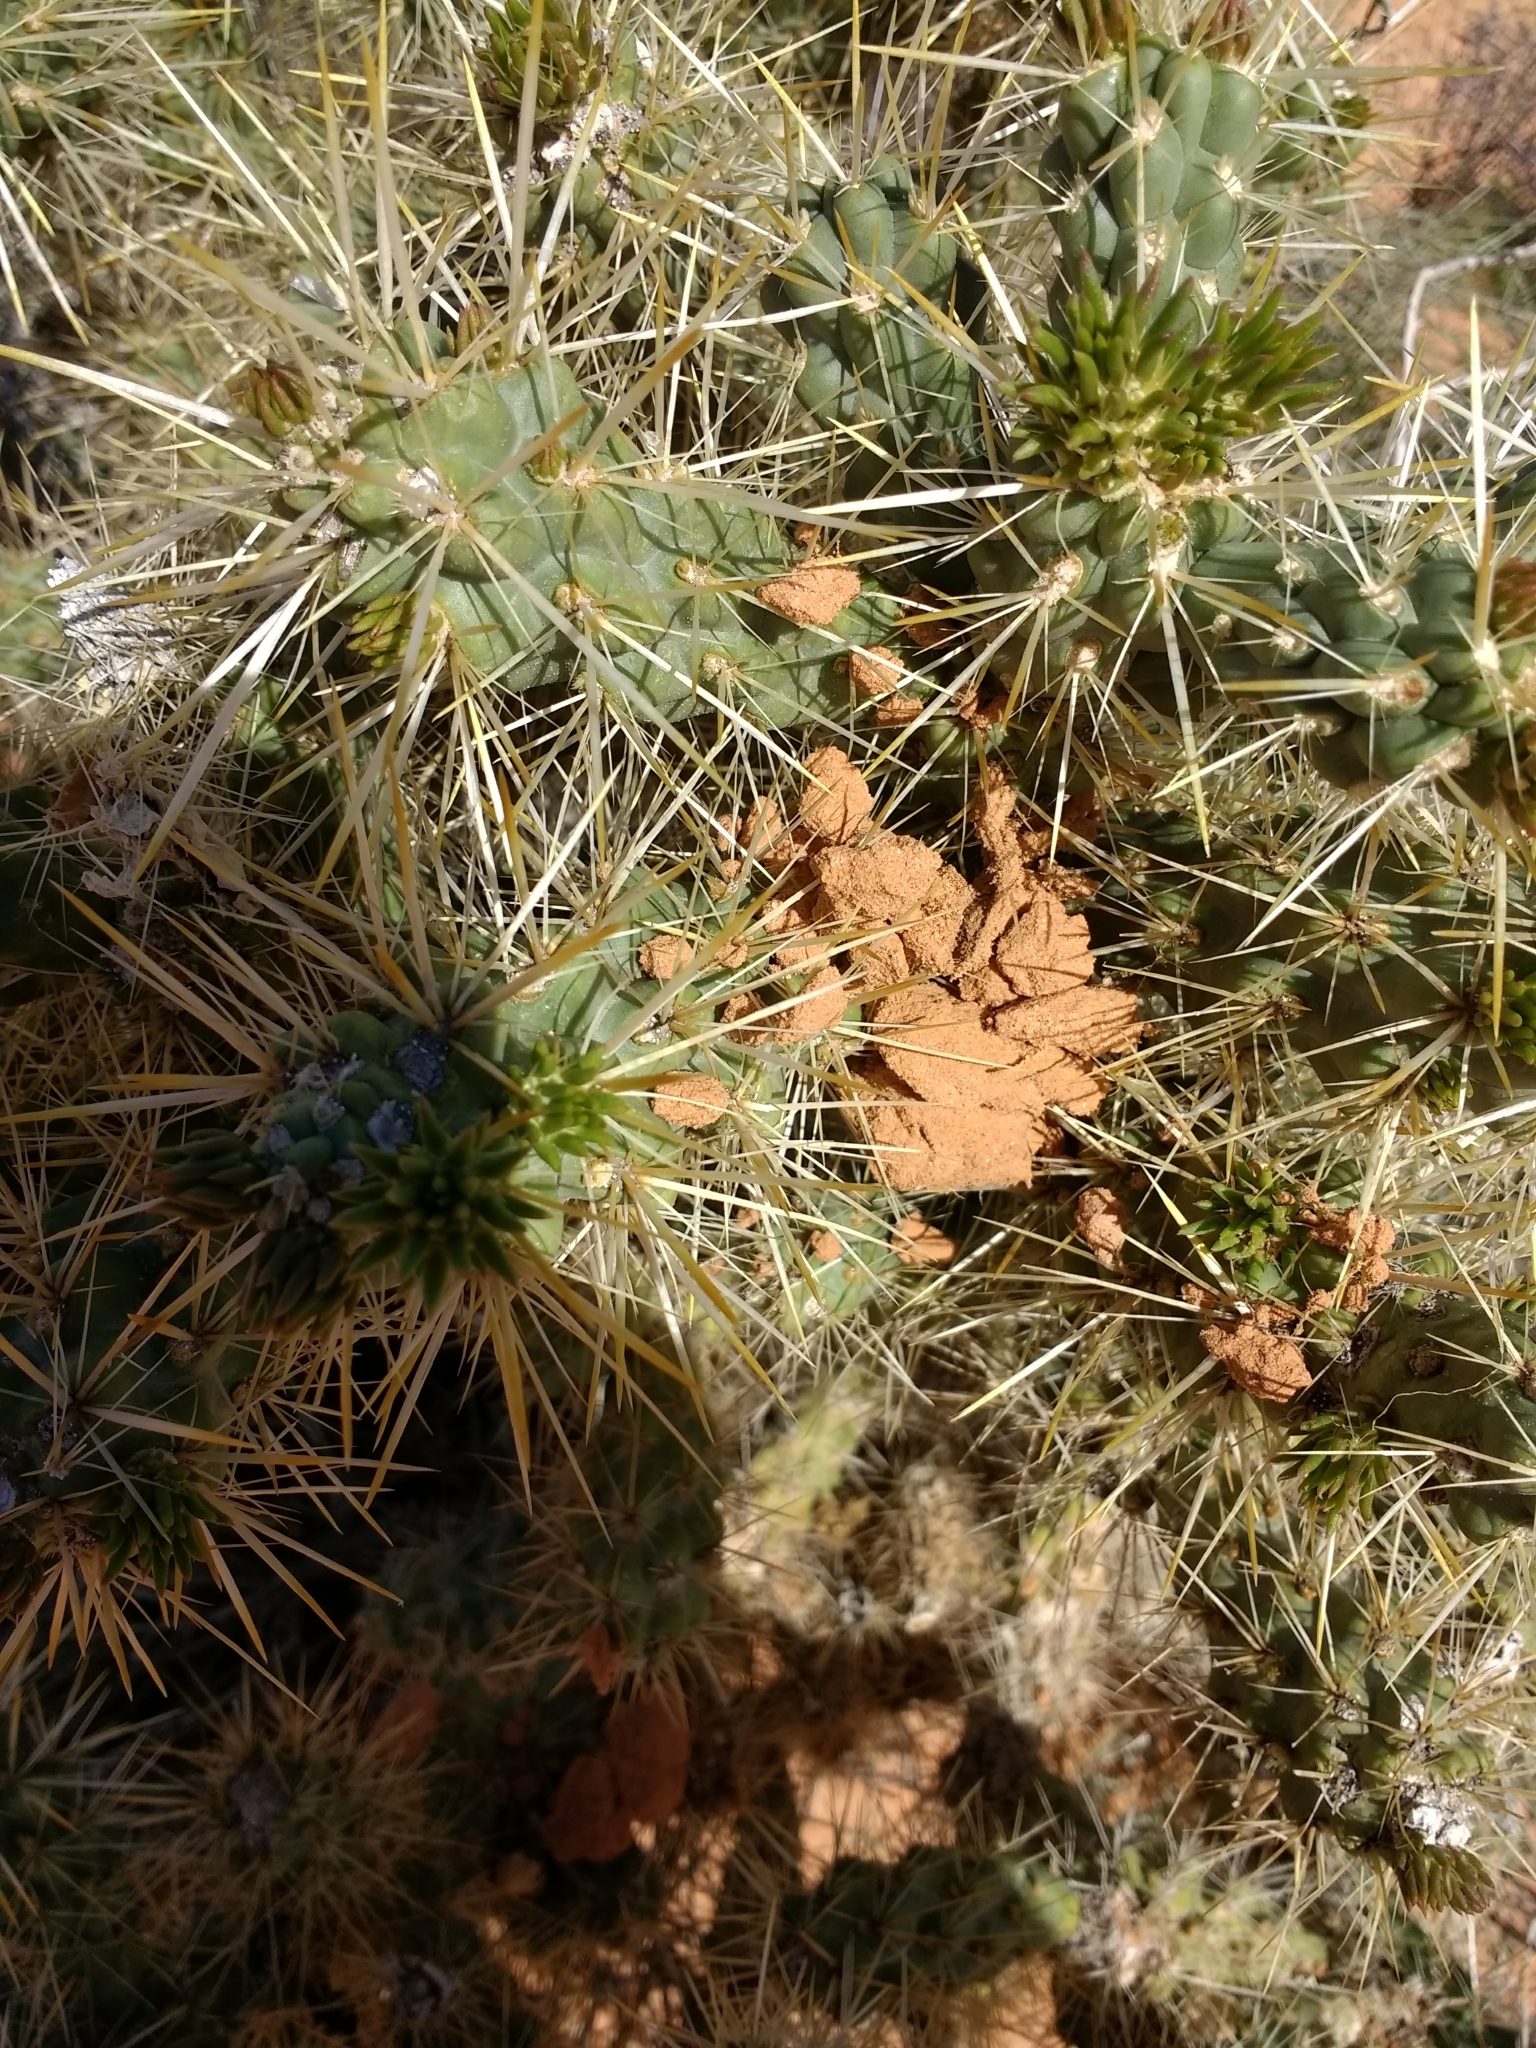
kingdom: Plantae
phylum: Tracheophyta
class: Magnoliopsida
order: Caryophyllales
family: Cactaceae
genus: Cylindropuntia
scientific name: Cylindropuntia echinocarpa
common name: Ground cholla
